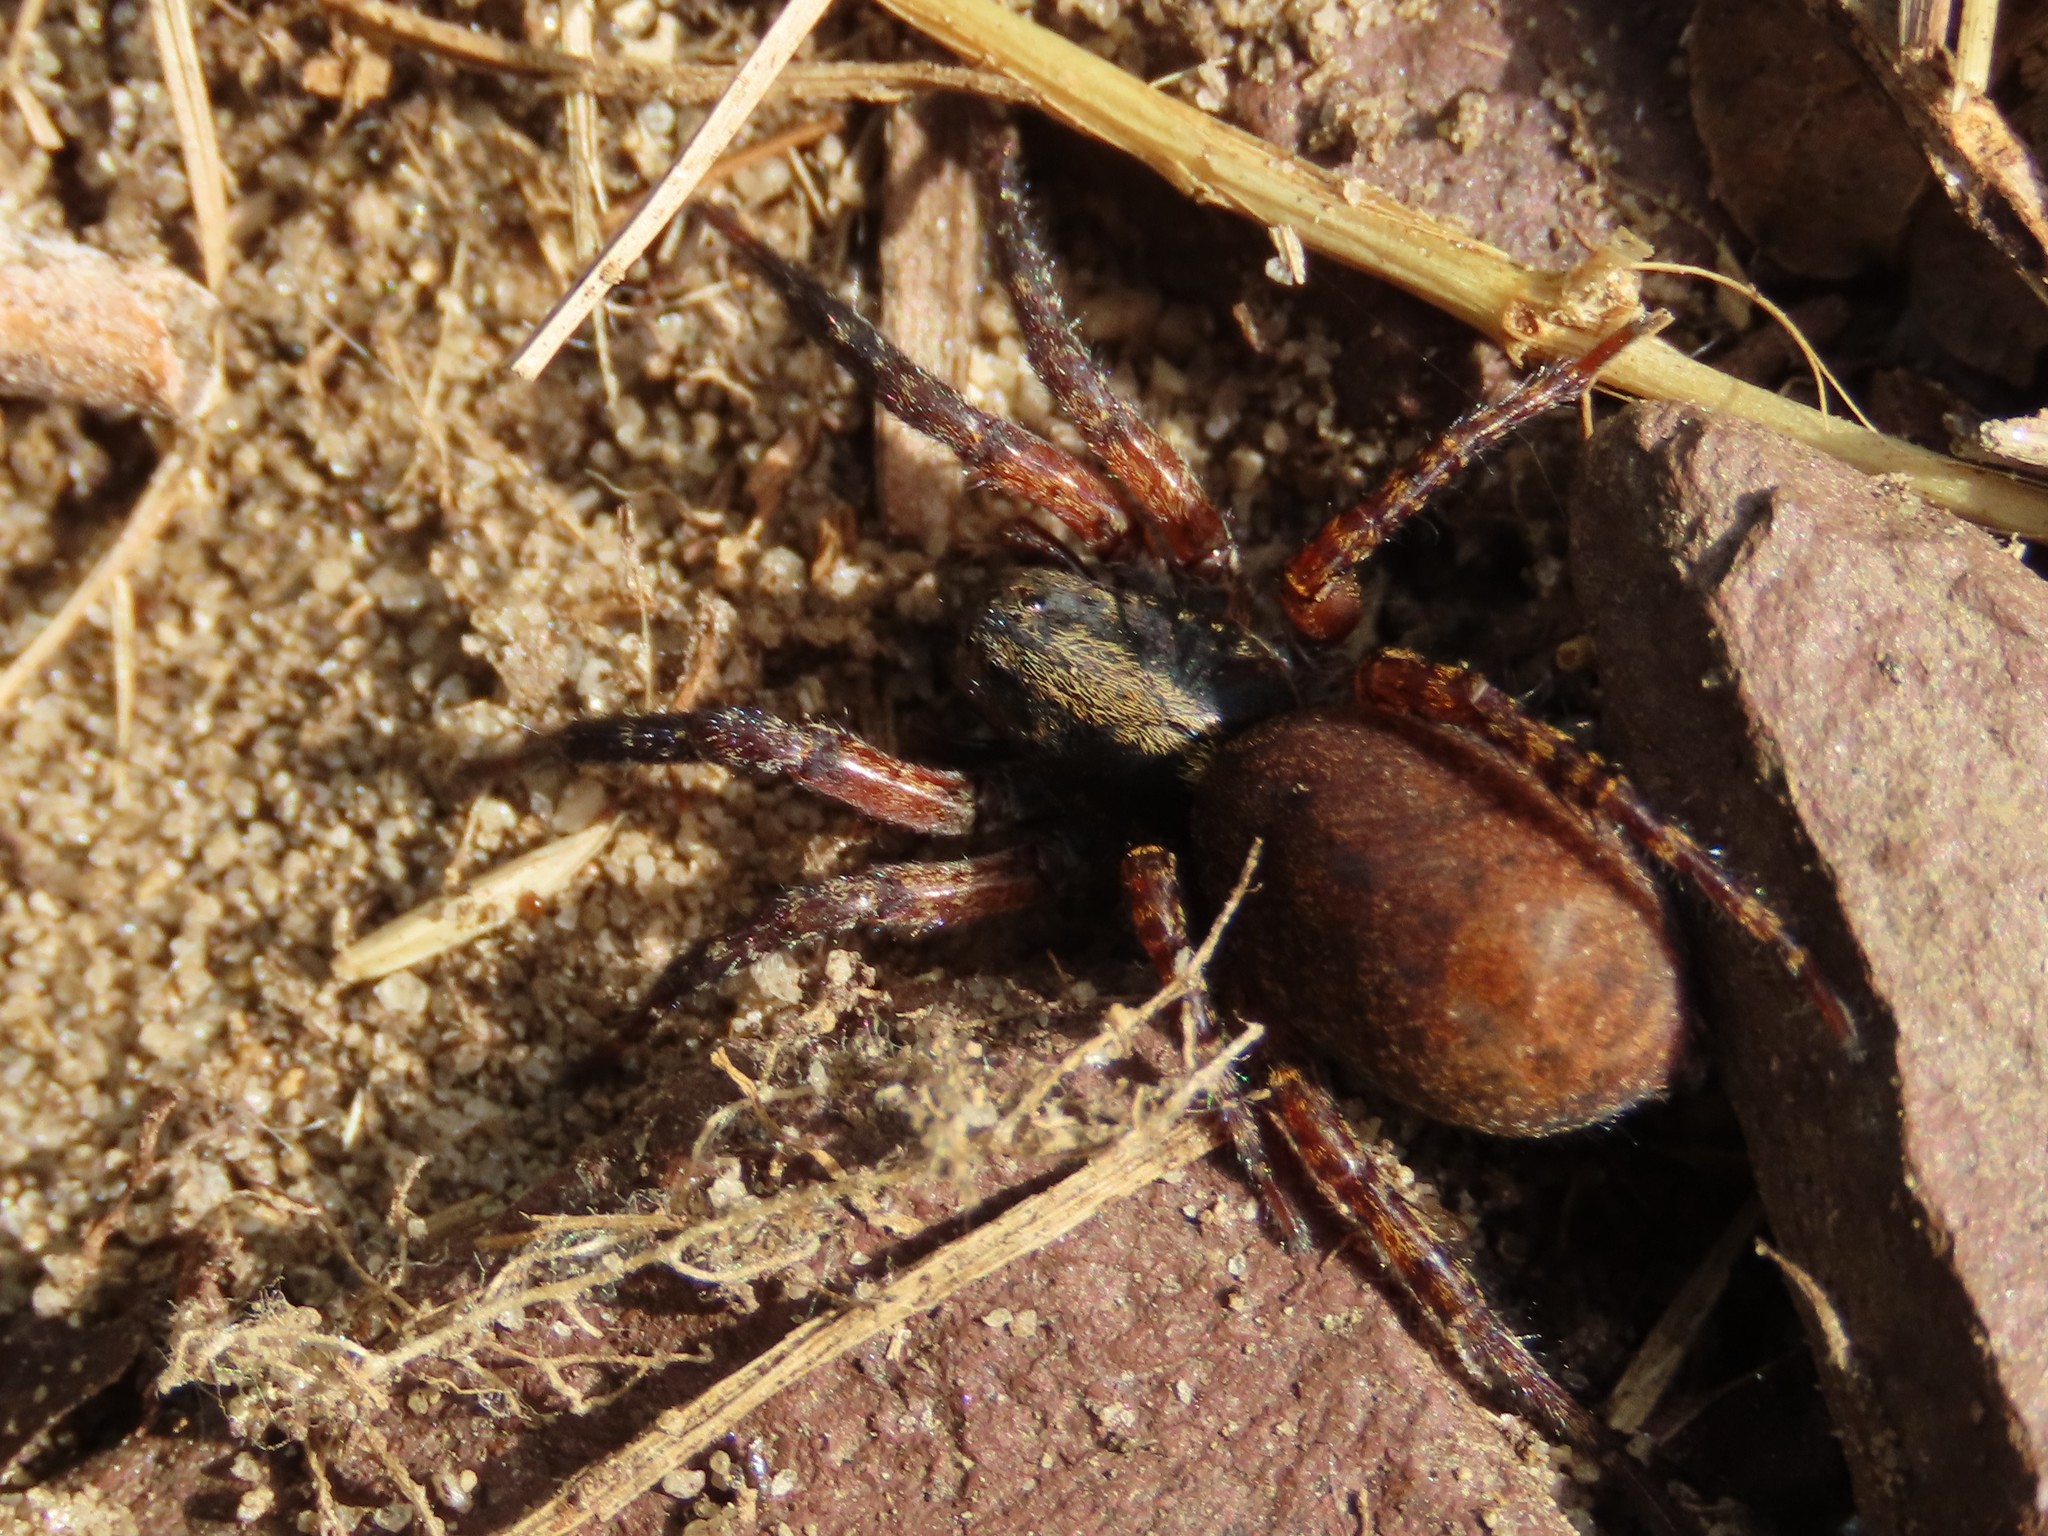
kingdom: Animalia
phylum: Arthropoda
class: Arachnida
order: Araneae
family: Lycosidae
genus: Trochosa
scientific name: Trochosa sepulchralis
